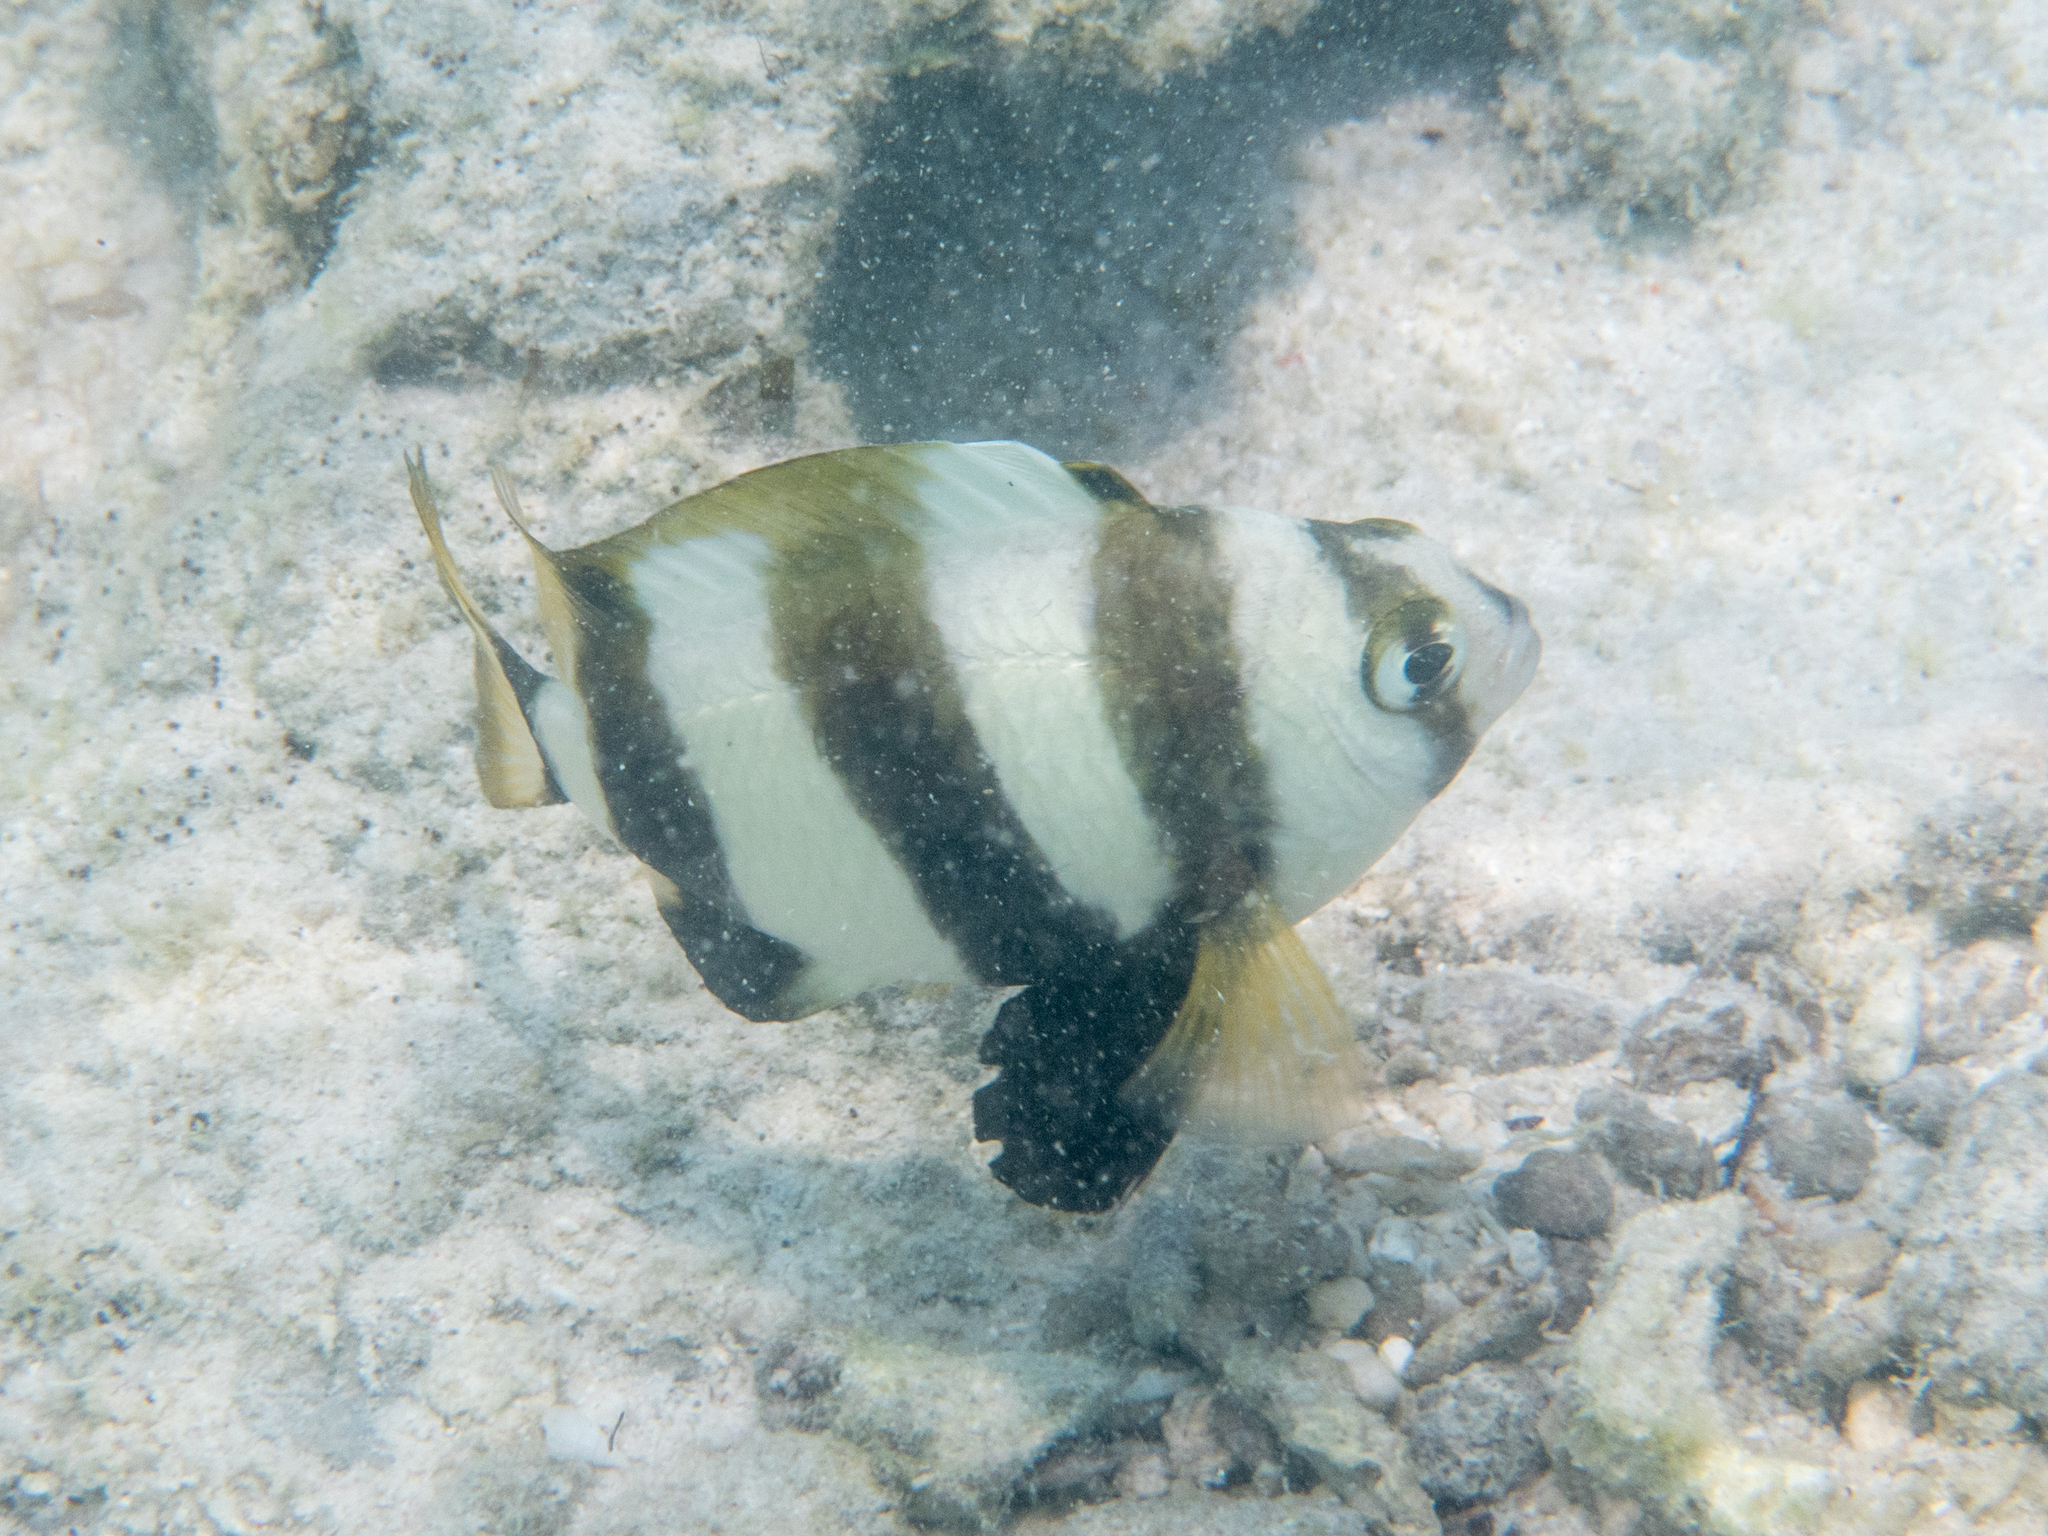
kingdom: Animalia
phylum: Chordata
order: Perciformes
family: Pomacentridae
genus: Amblypomacentrus
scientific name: Amblypomacentrus
